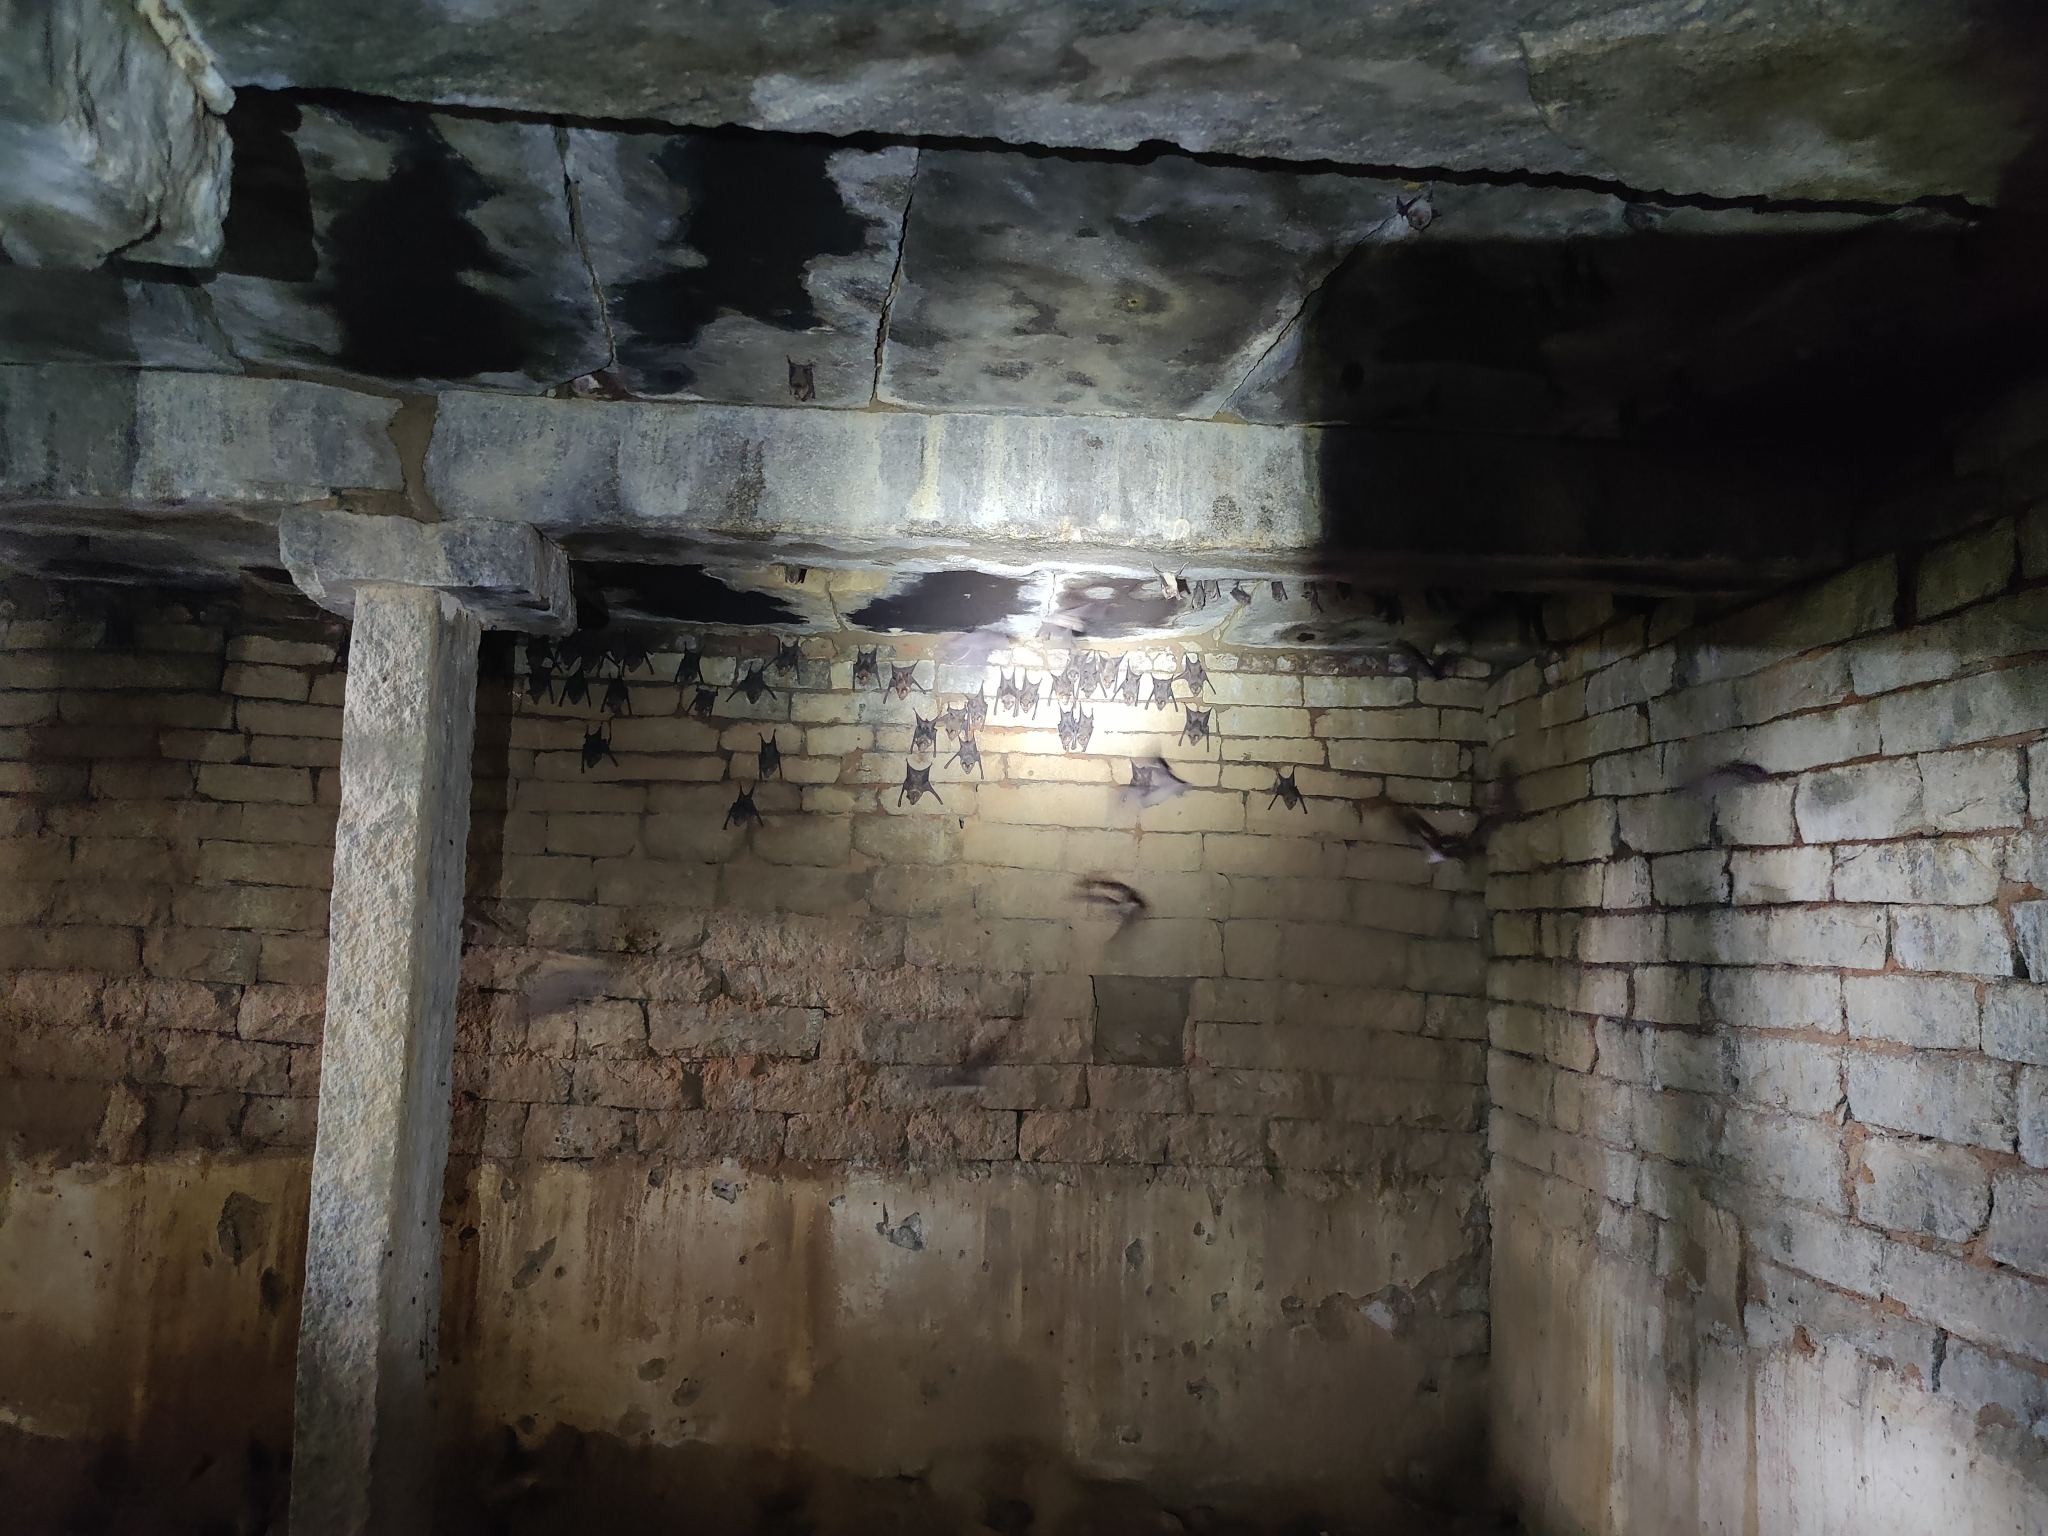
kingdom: Animalia
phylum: Chordata
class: Mammalia
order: Chiroptera
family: Hipposideridae
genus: Hipposideros
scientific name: Hipposideros lankadiva
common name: Indian leaf-nosed bat
